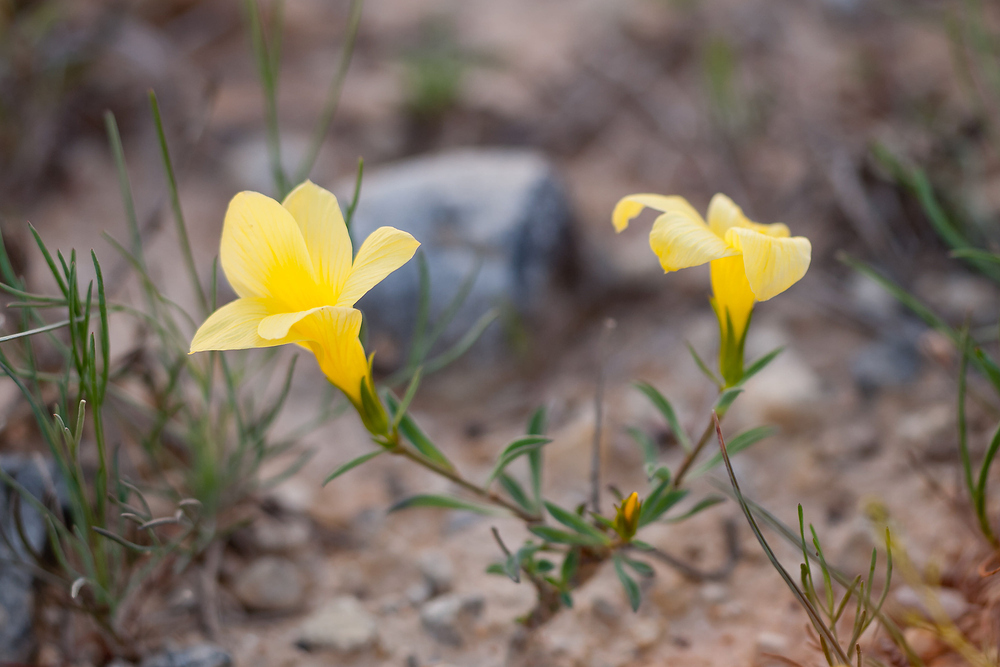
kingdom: Plantae
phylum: Tracheophyta
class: Magnoliopsida
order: Malpighiales
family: Linaceae
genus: Linum
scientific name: Linum campanulatum
